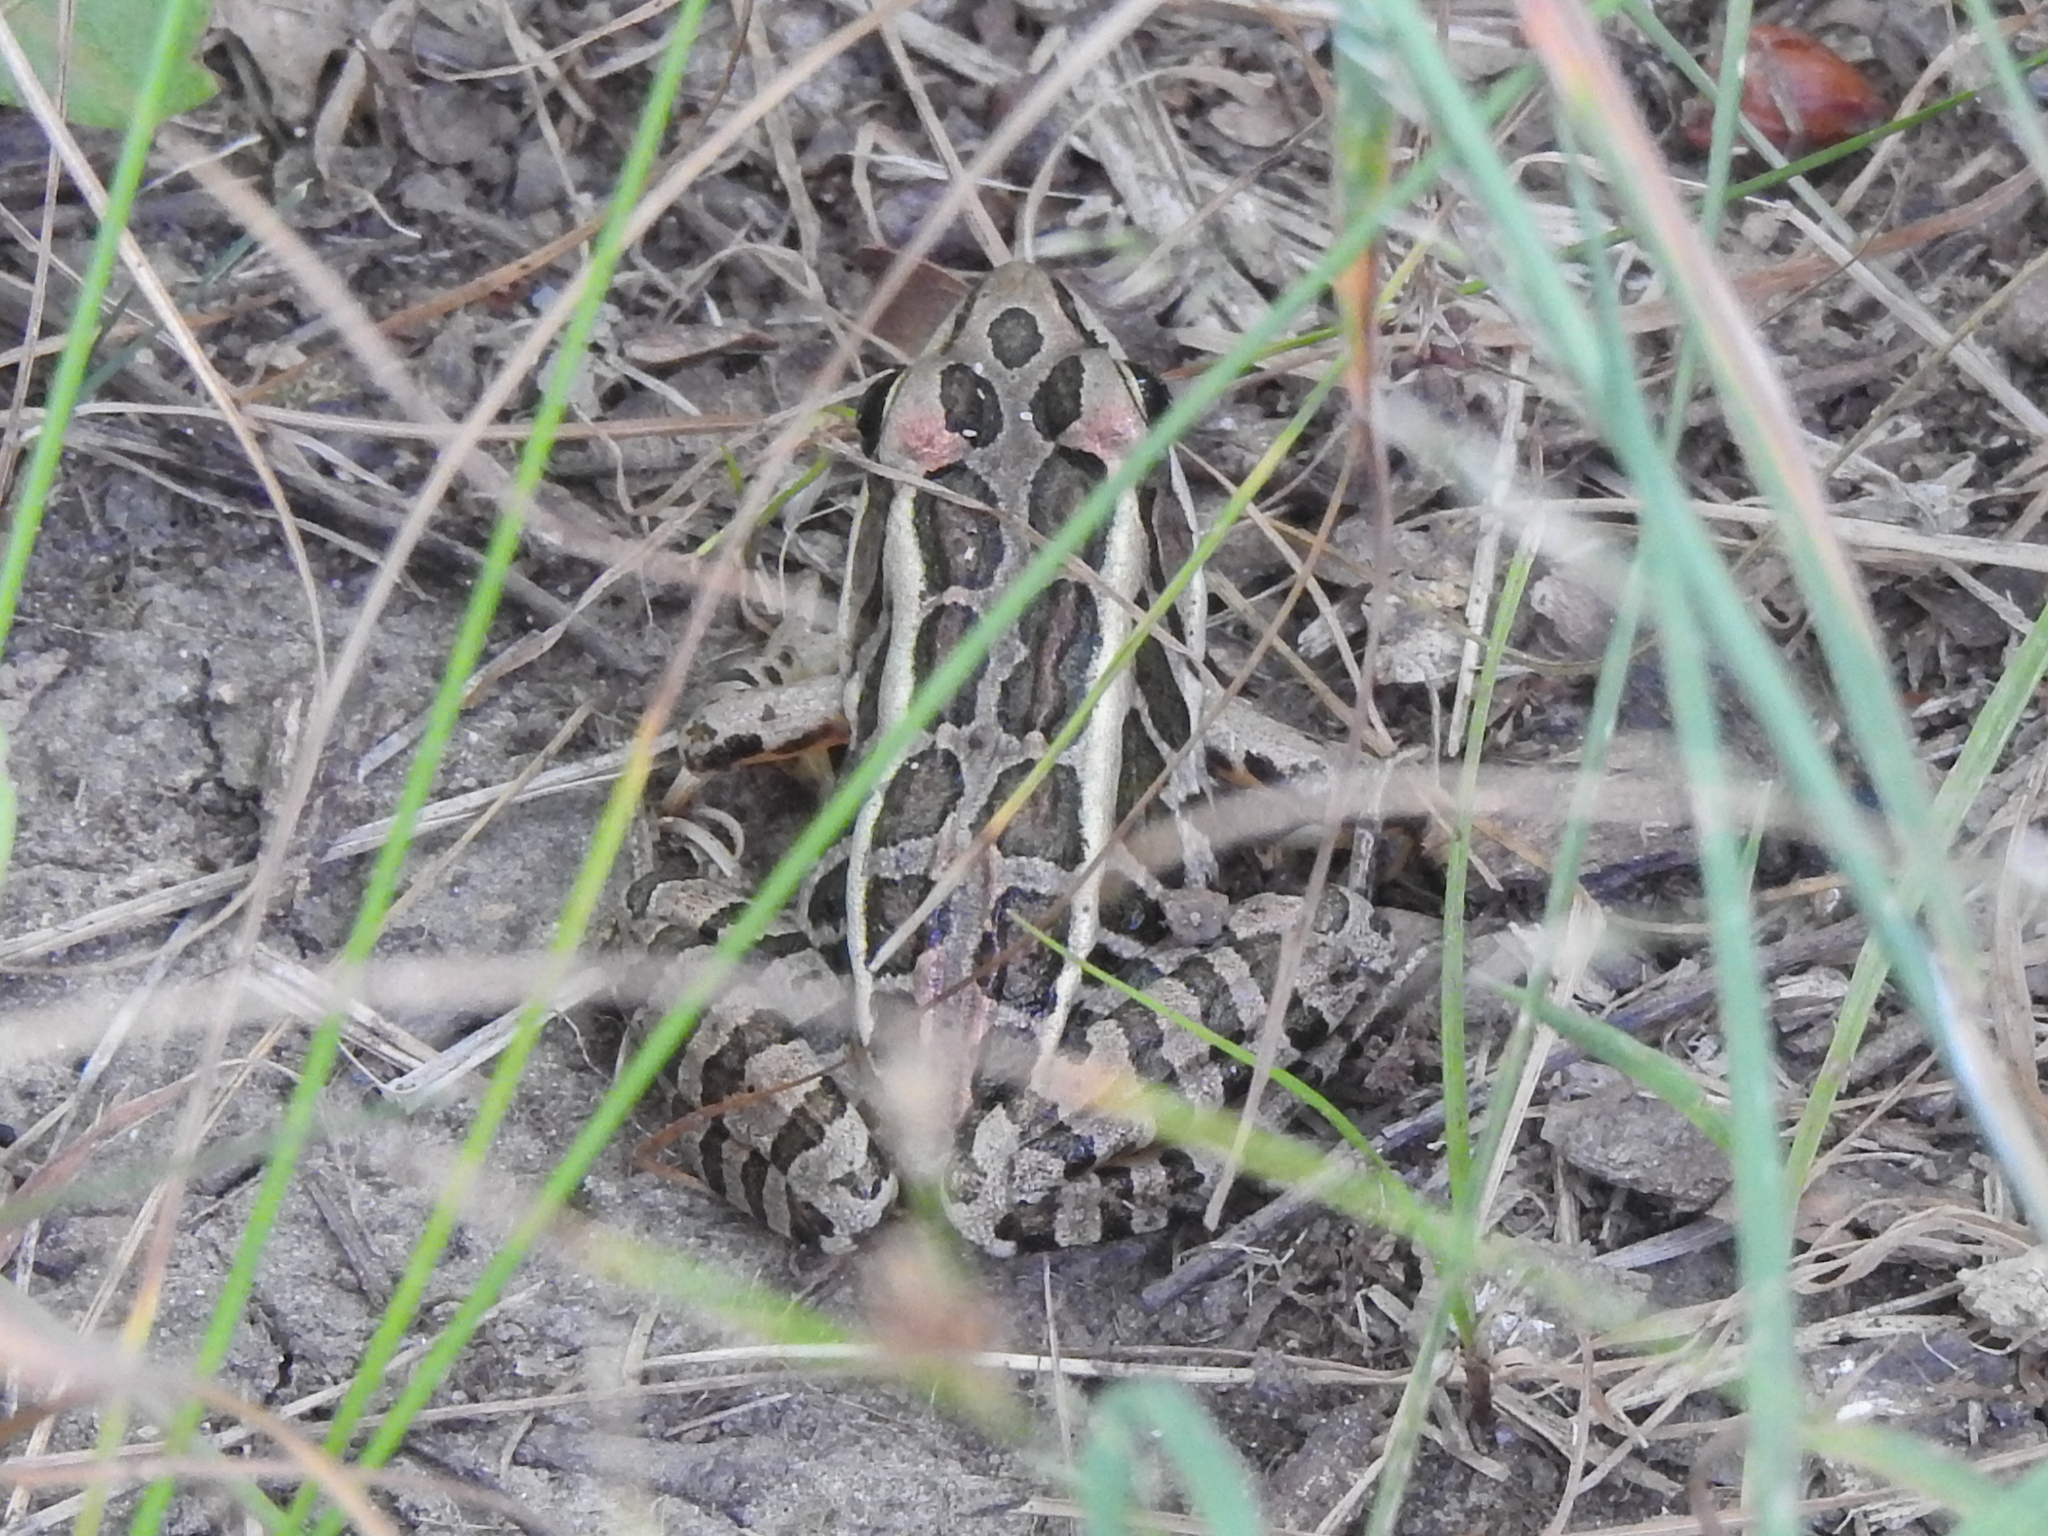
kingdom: Animalia
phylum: Chordata
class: Amphibia
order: Anura
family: Ranidae
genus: Lithobates
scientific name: Lithobates palustris
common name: Pickerel frog
